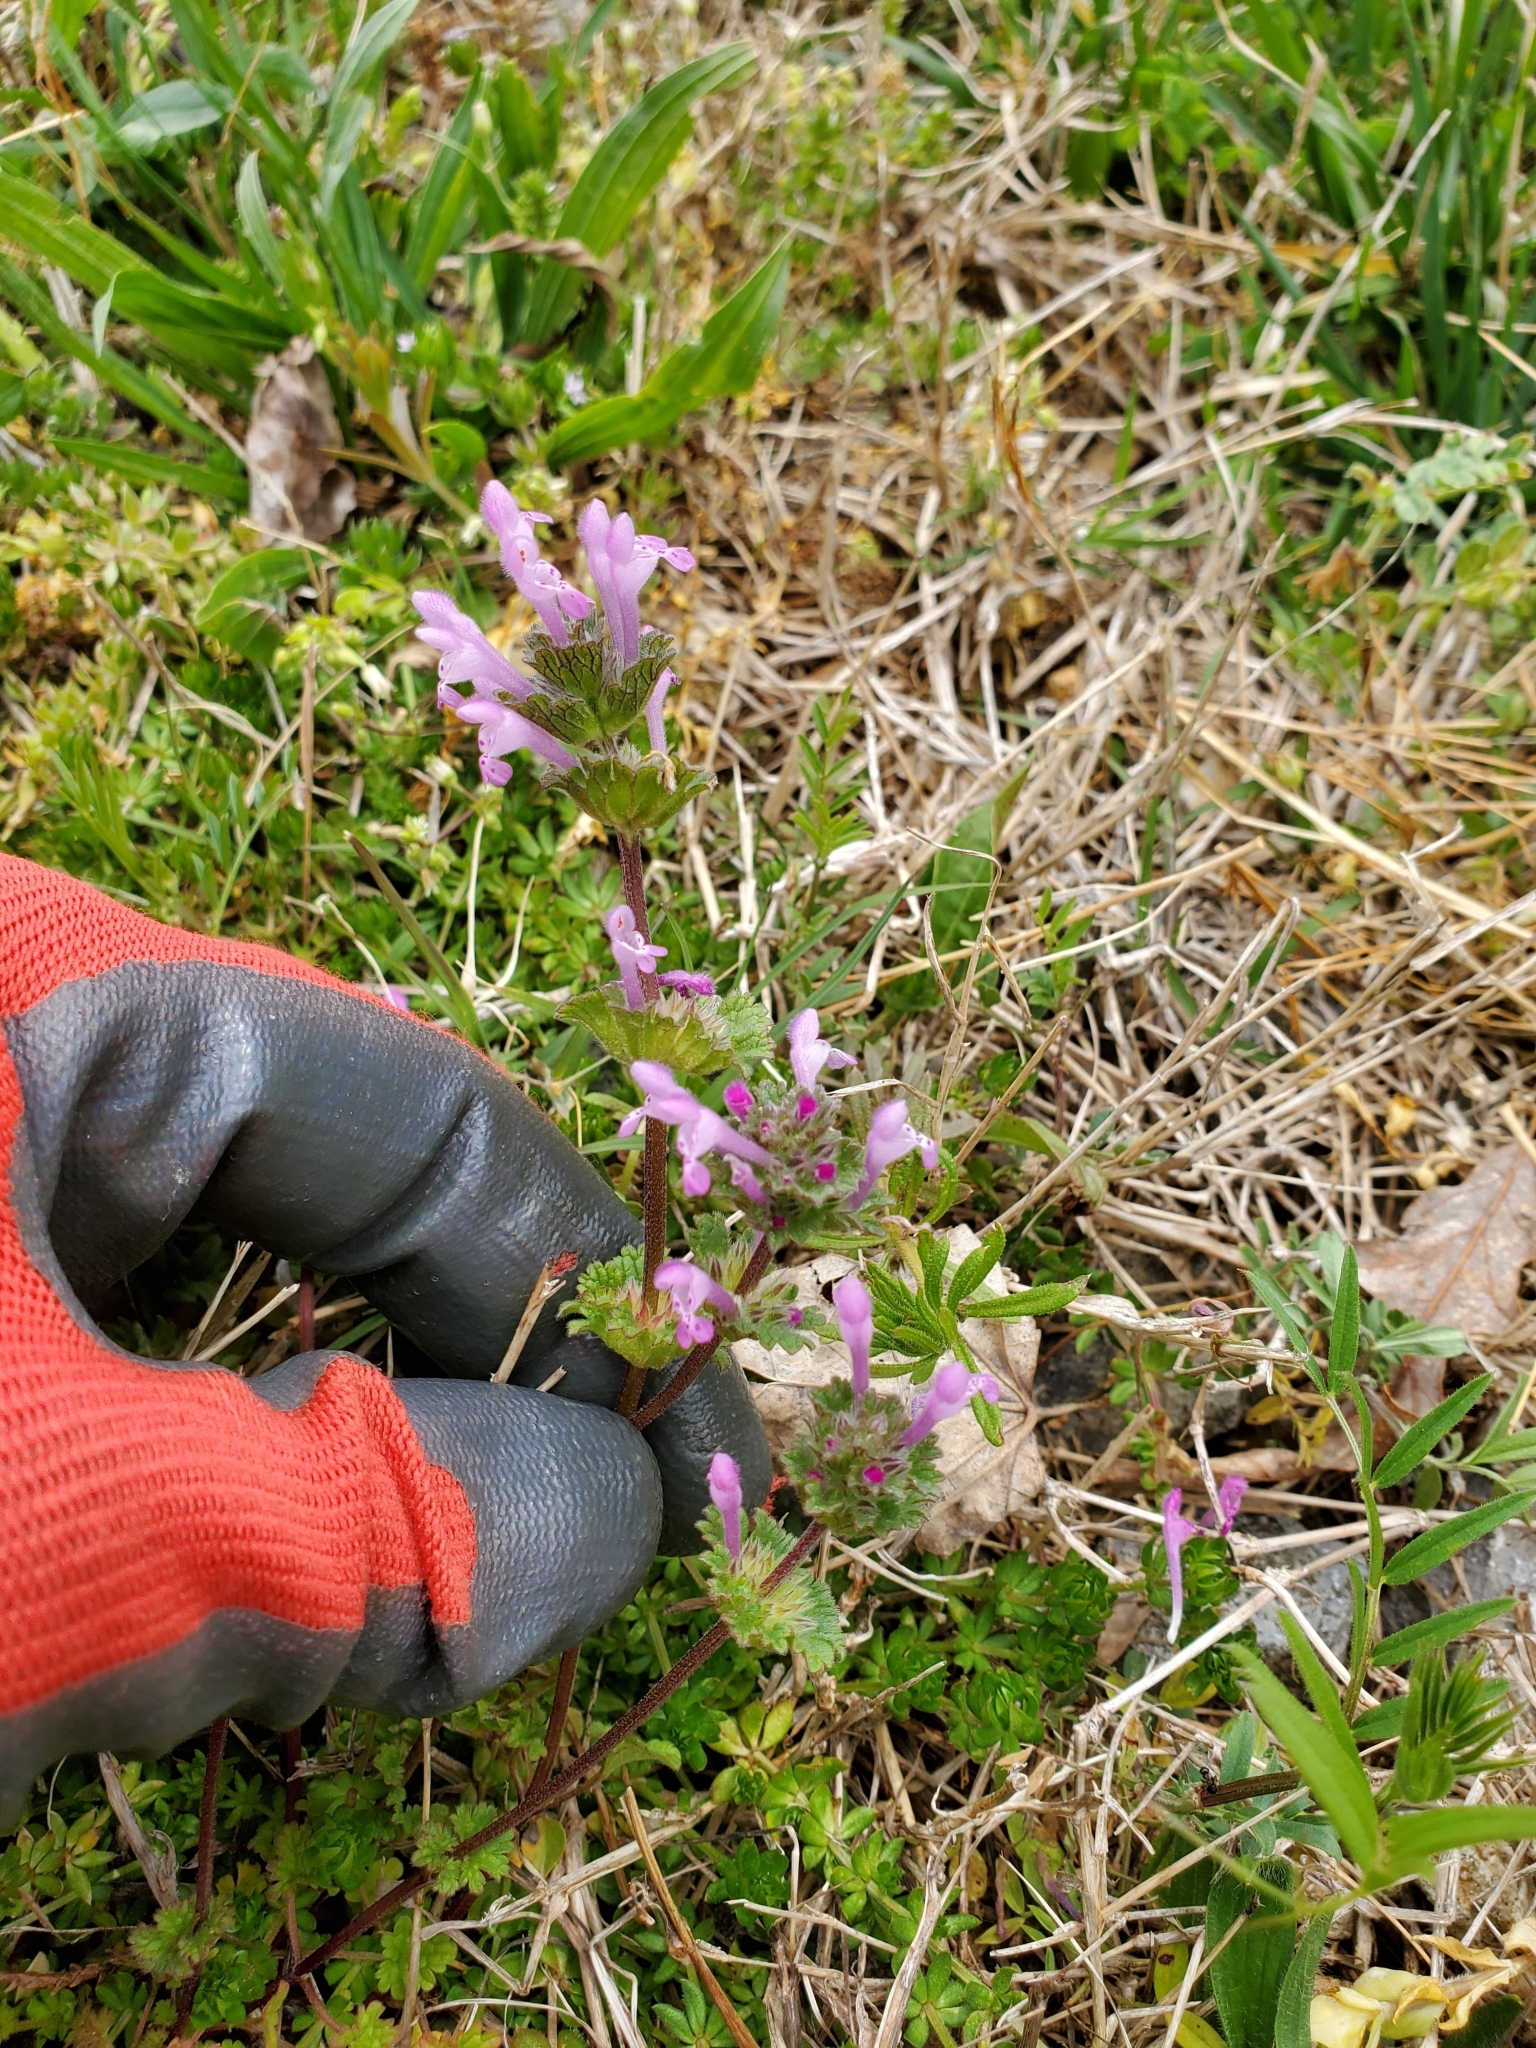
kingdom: Plantae
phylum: Tracheophyta
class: Magnoliopsida
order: Lamiales
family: Lamiaceae
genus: Lamium
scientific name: Lamium amplexicaule
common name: Henbit dead-nettle
